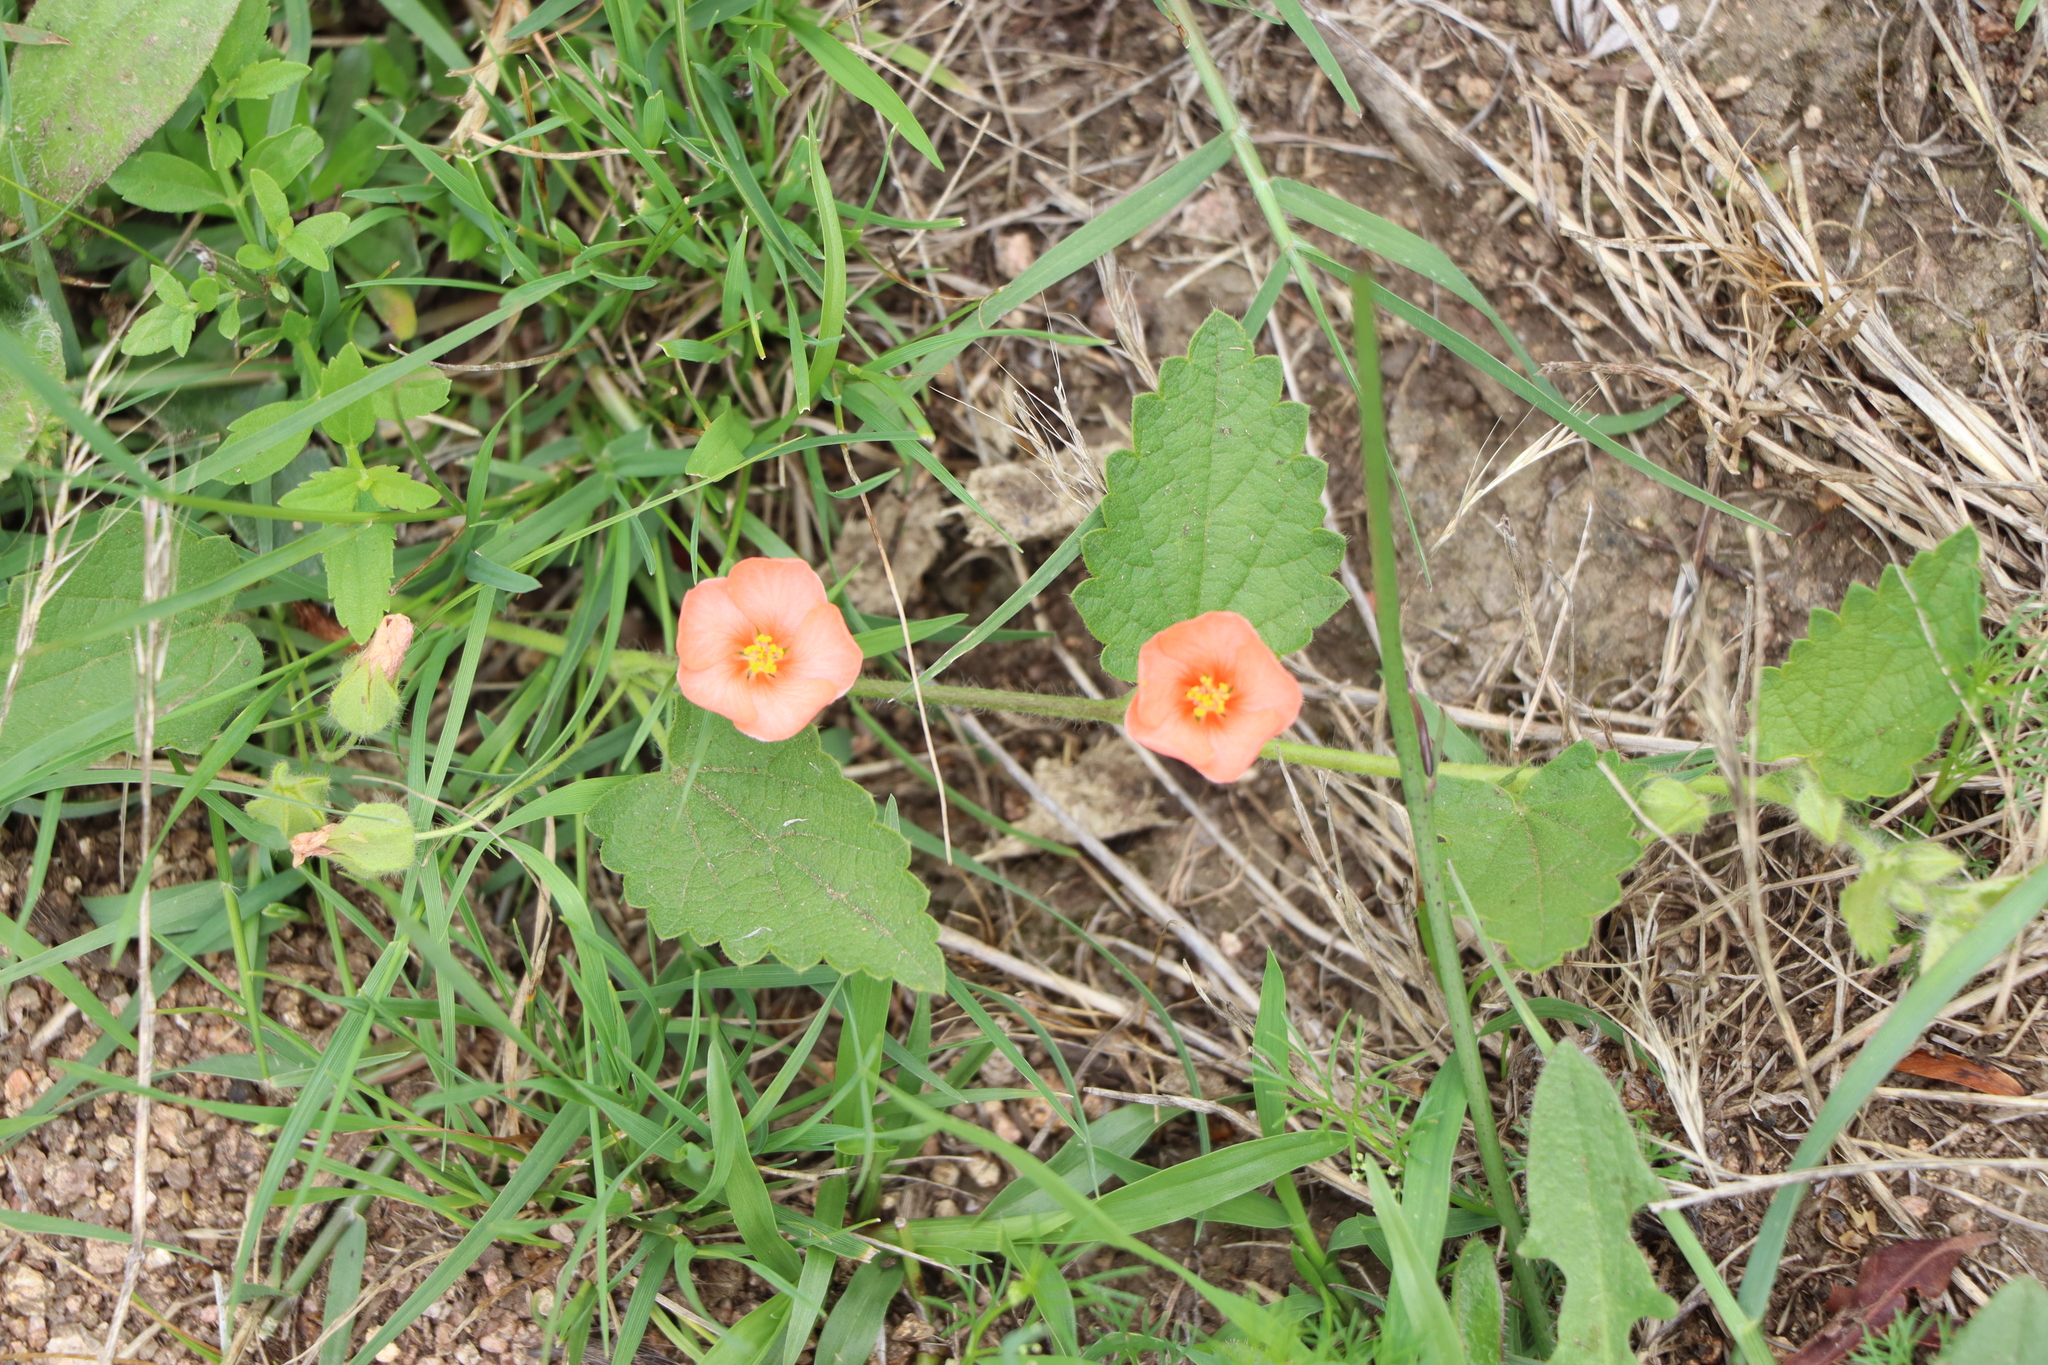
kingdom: Plantae
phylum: Tracheophyta
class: Magnoliopsida
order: Malvales
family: Malvaceae
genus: Krapovickasia
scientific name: Krapovickasia flavescens
